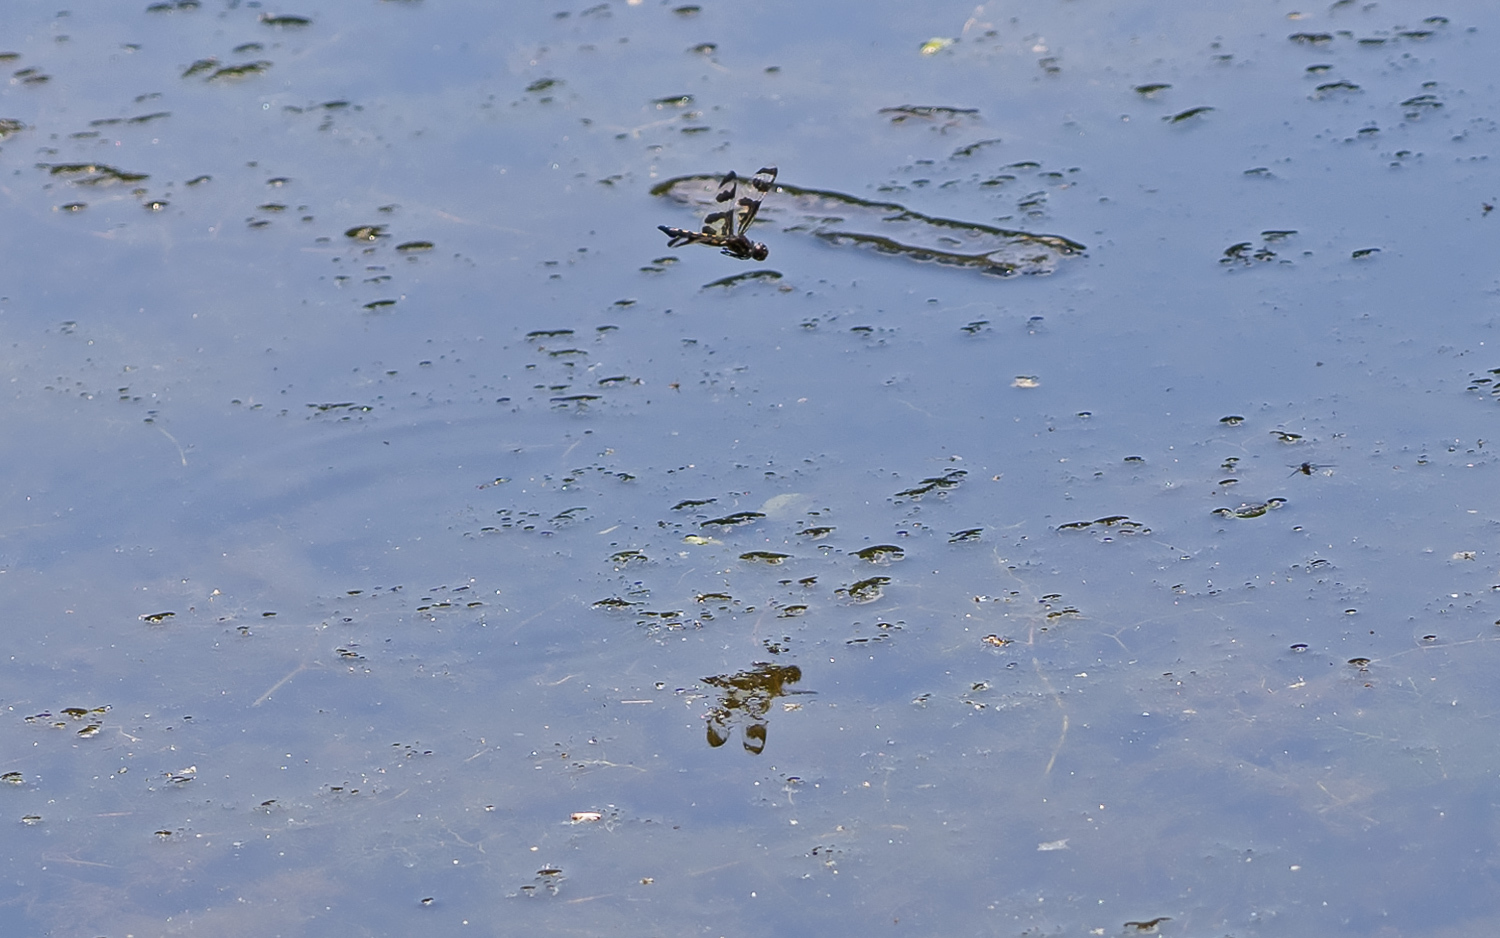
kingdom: Animalia
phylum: Arthropoda
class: Insecta
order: Odonata
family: Libellulidae
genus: Celithemis
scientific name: Celithemis fasciata
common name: Banded pennant
